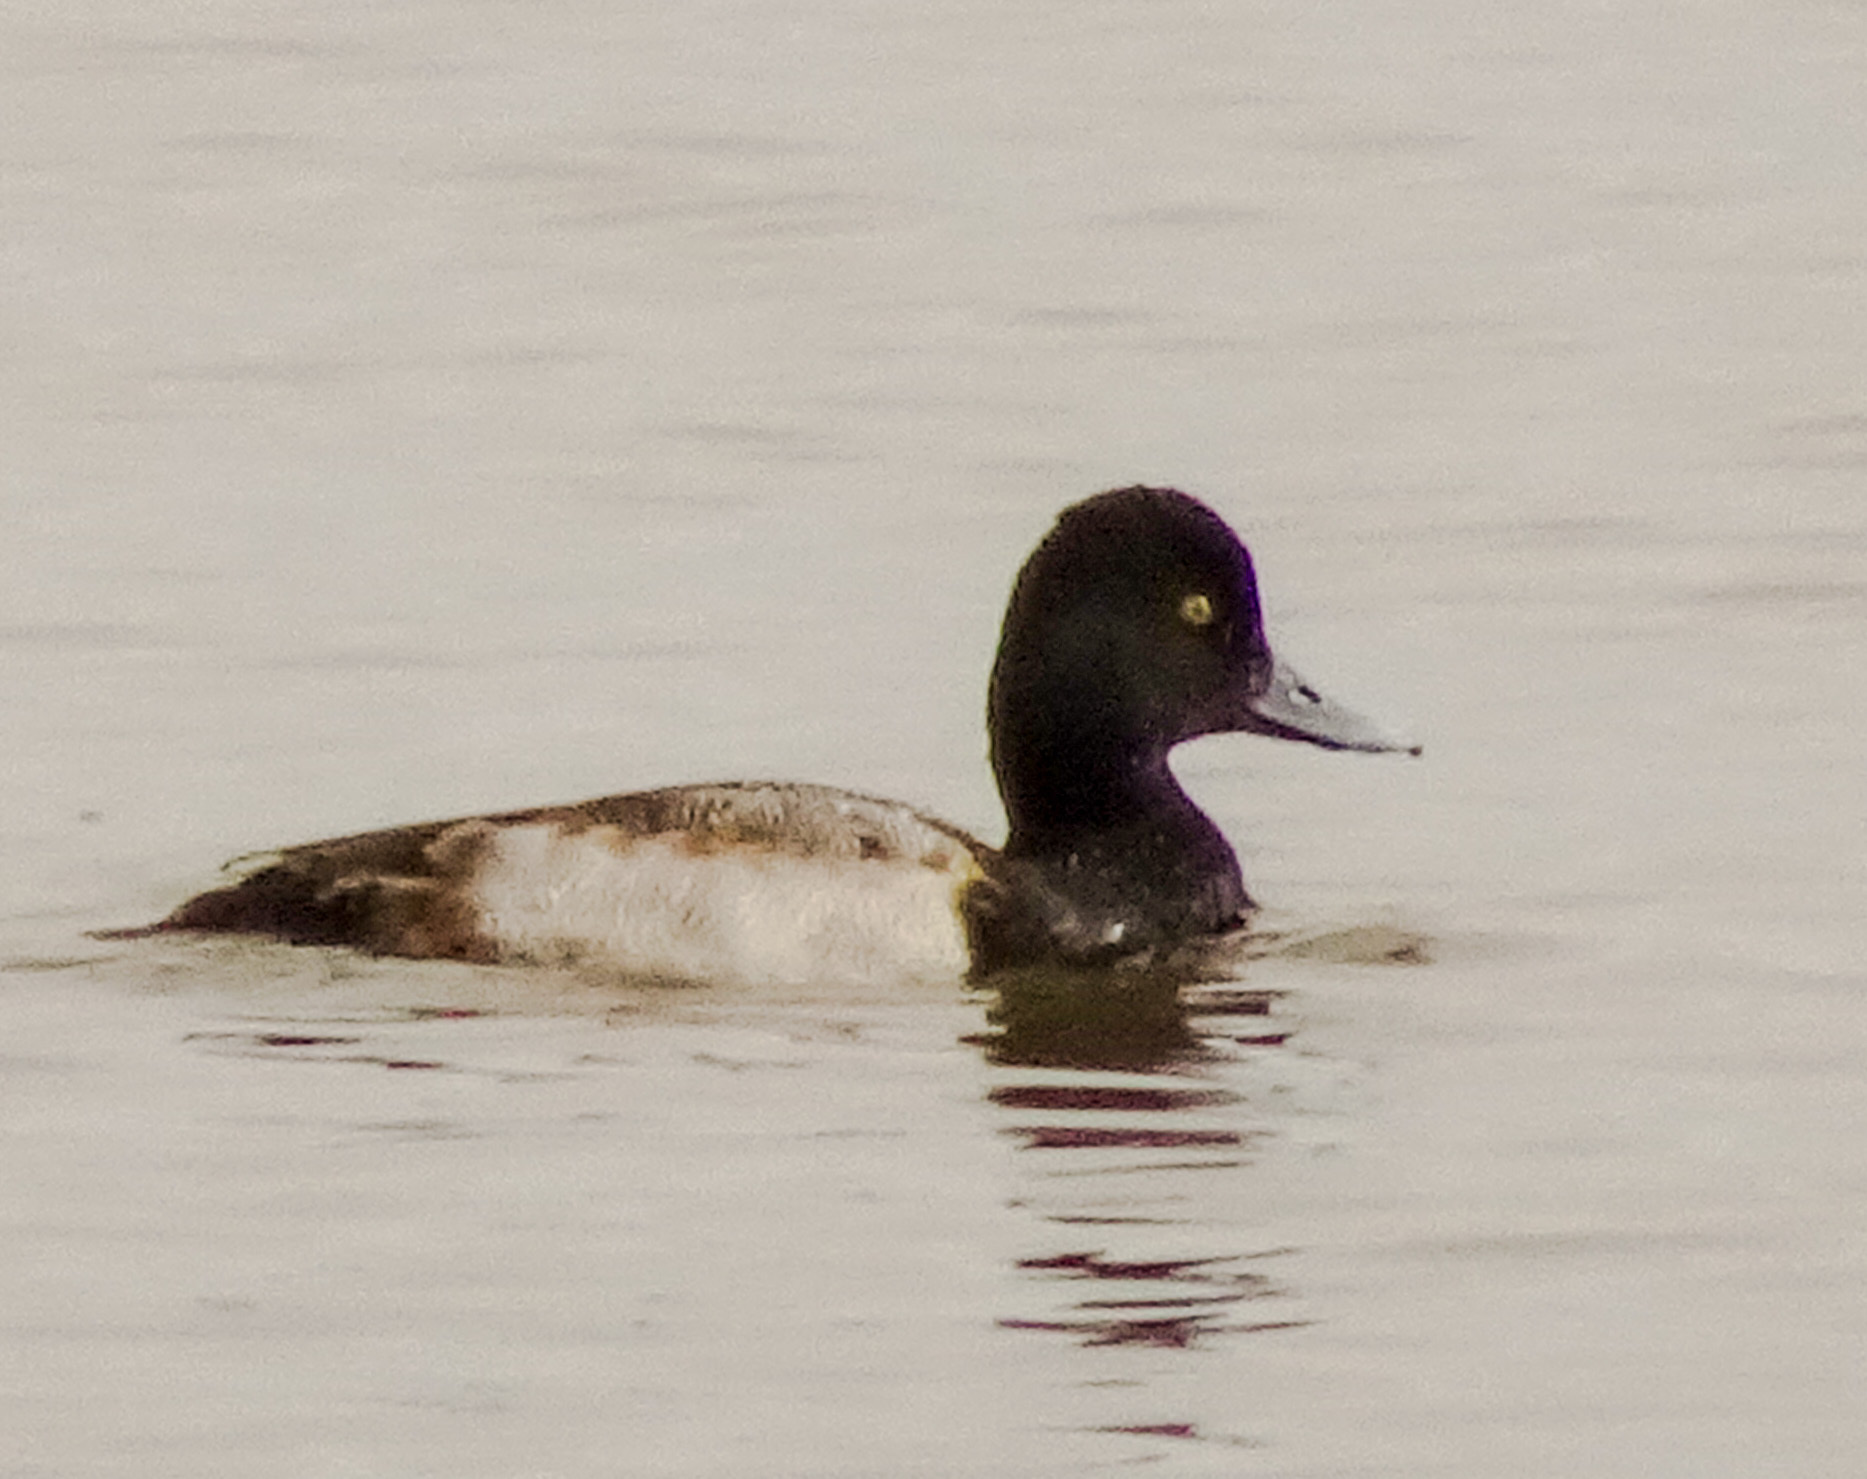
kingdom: Animalia
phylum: Chordata
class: Aves
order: Anseriformes
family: Anatidae
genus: Aythya
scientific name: Aythya affinis
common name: Lesser scaup
